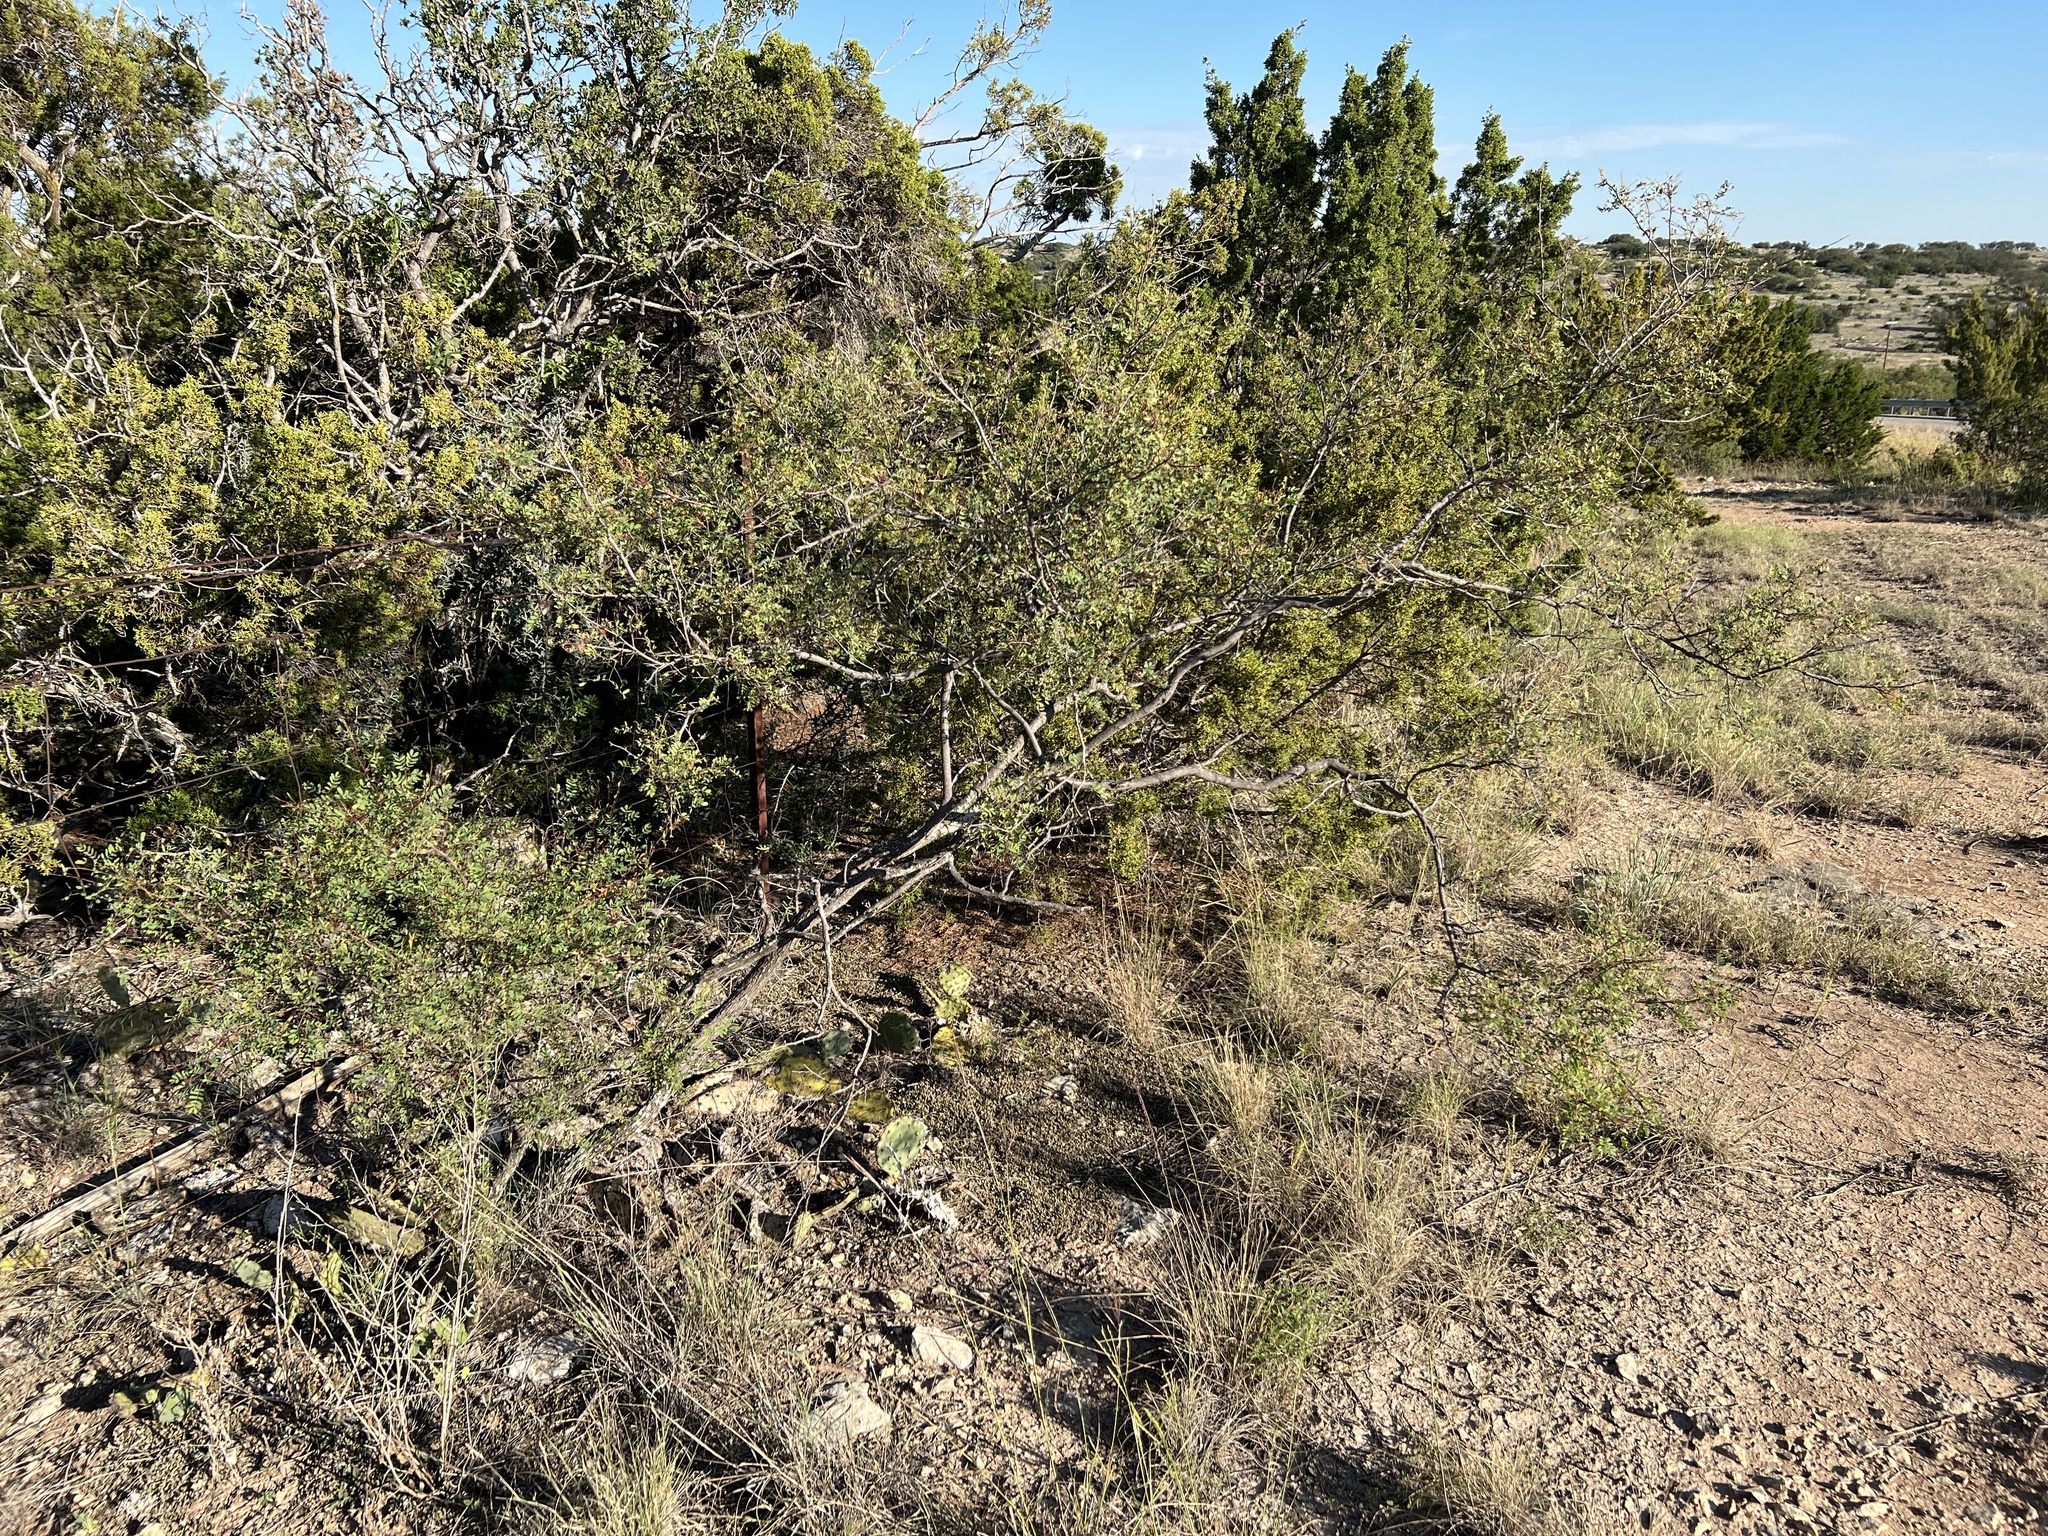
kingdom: Plantae
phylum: Tracheophyta
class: Magnoliopsida
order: Fabales
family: Fabaceae
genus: Senegalia
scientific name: Senegalia roemeriana
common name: Roemer's acacia
